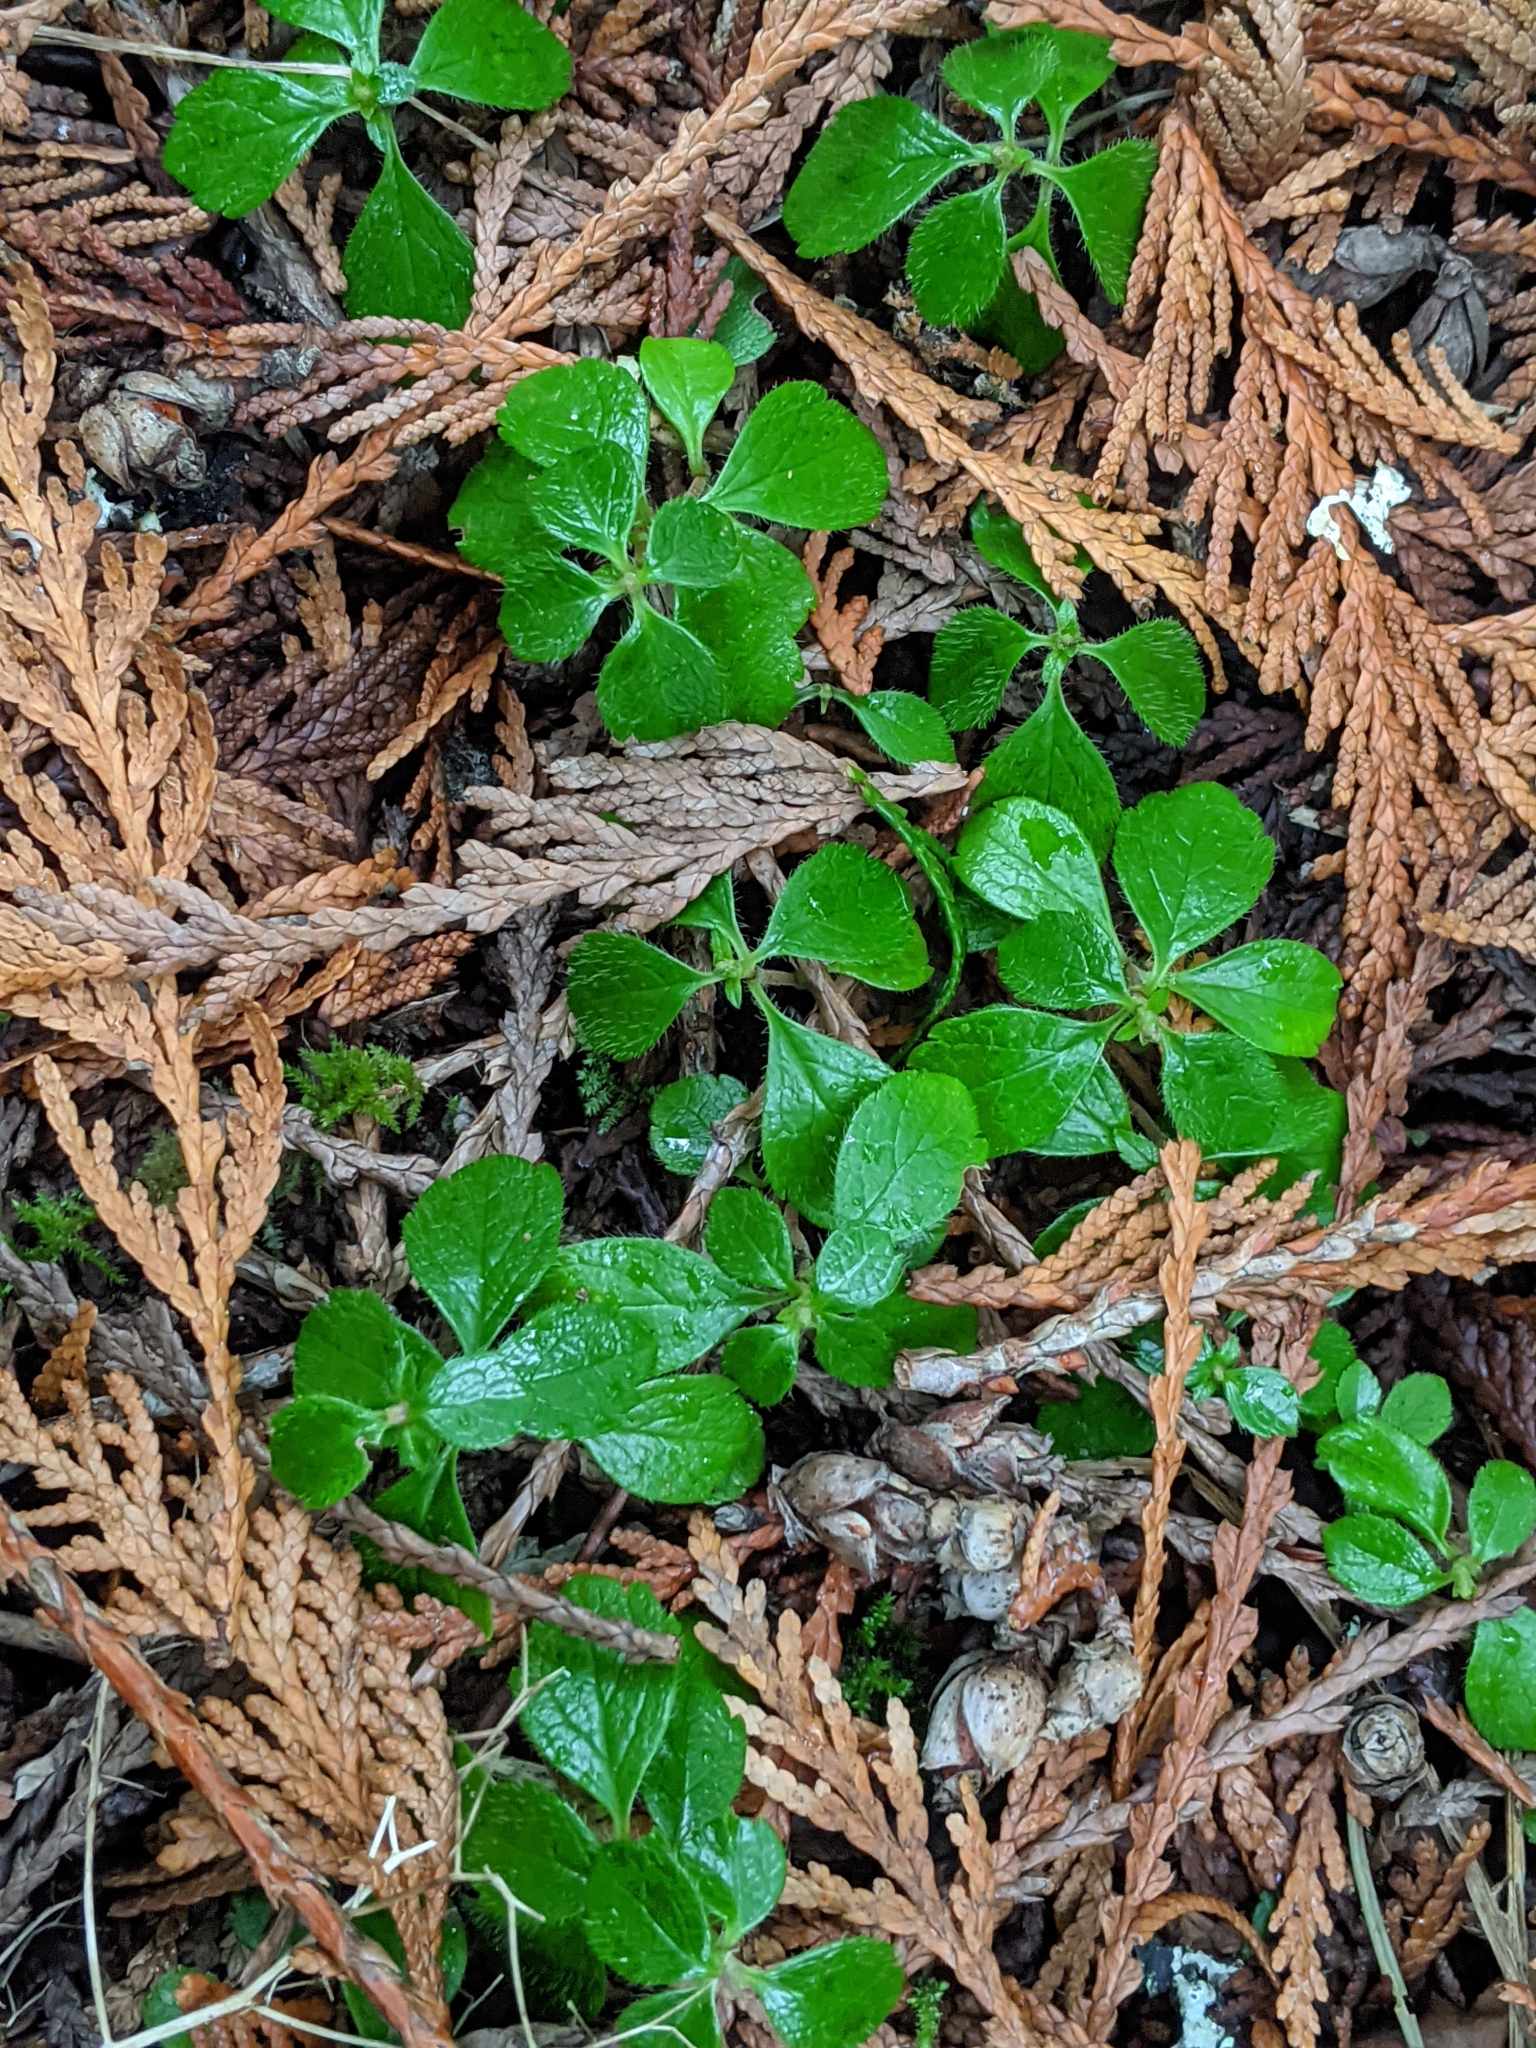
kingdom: Plantae
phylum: Tracheophyta
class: Magnoliopsida
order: Dipsacales
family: Caprifoliaceae
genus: Linnaea
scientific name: Linnaea borealis
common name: Twinflower
